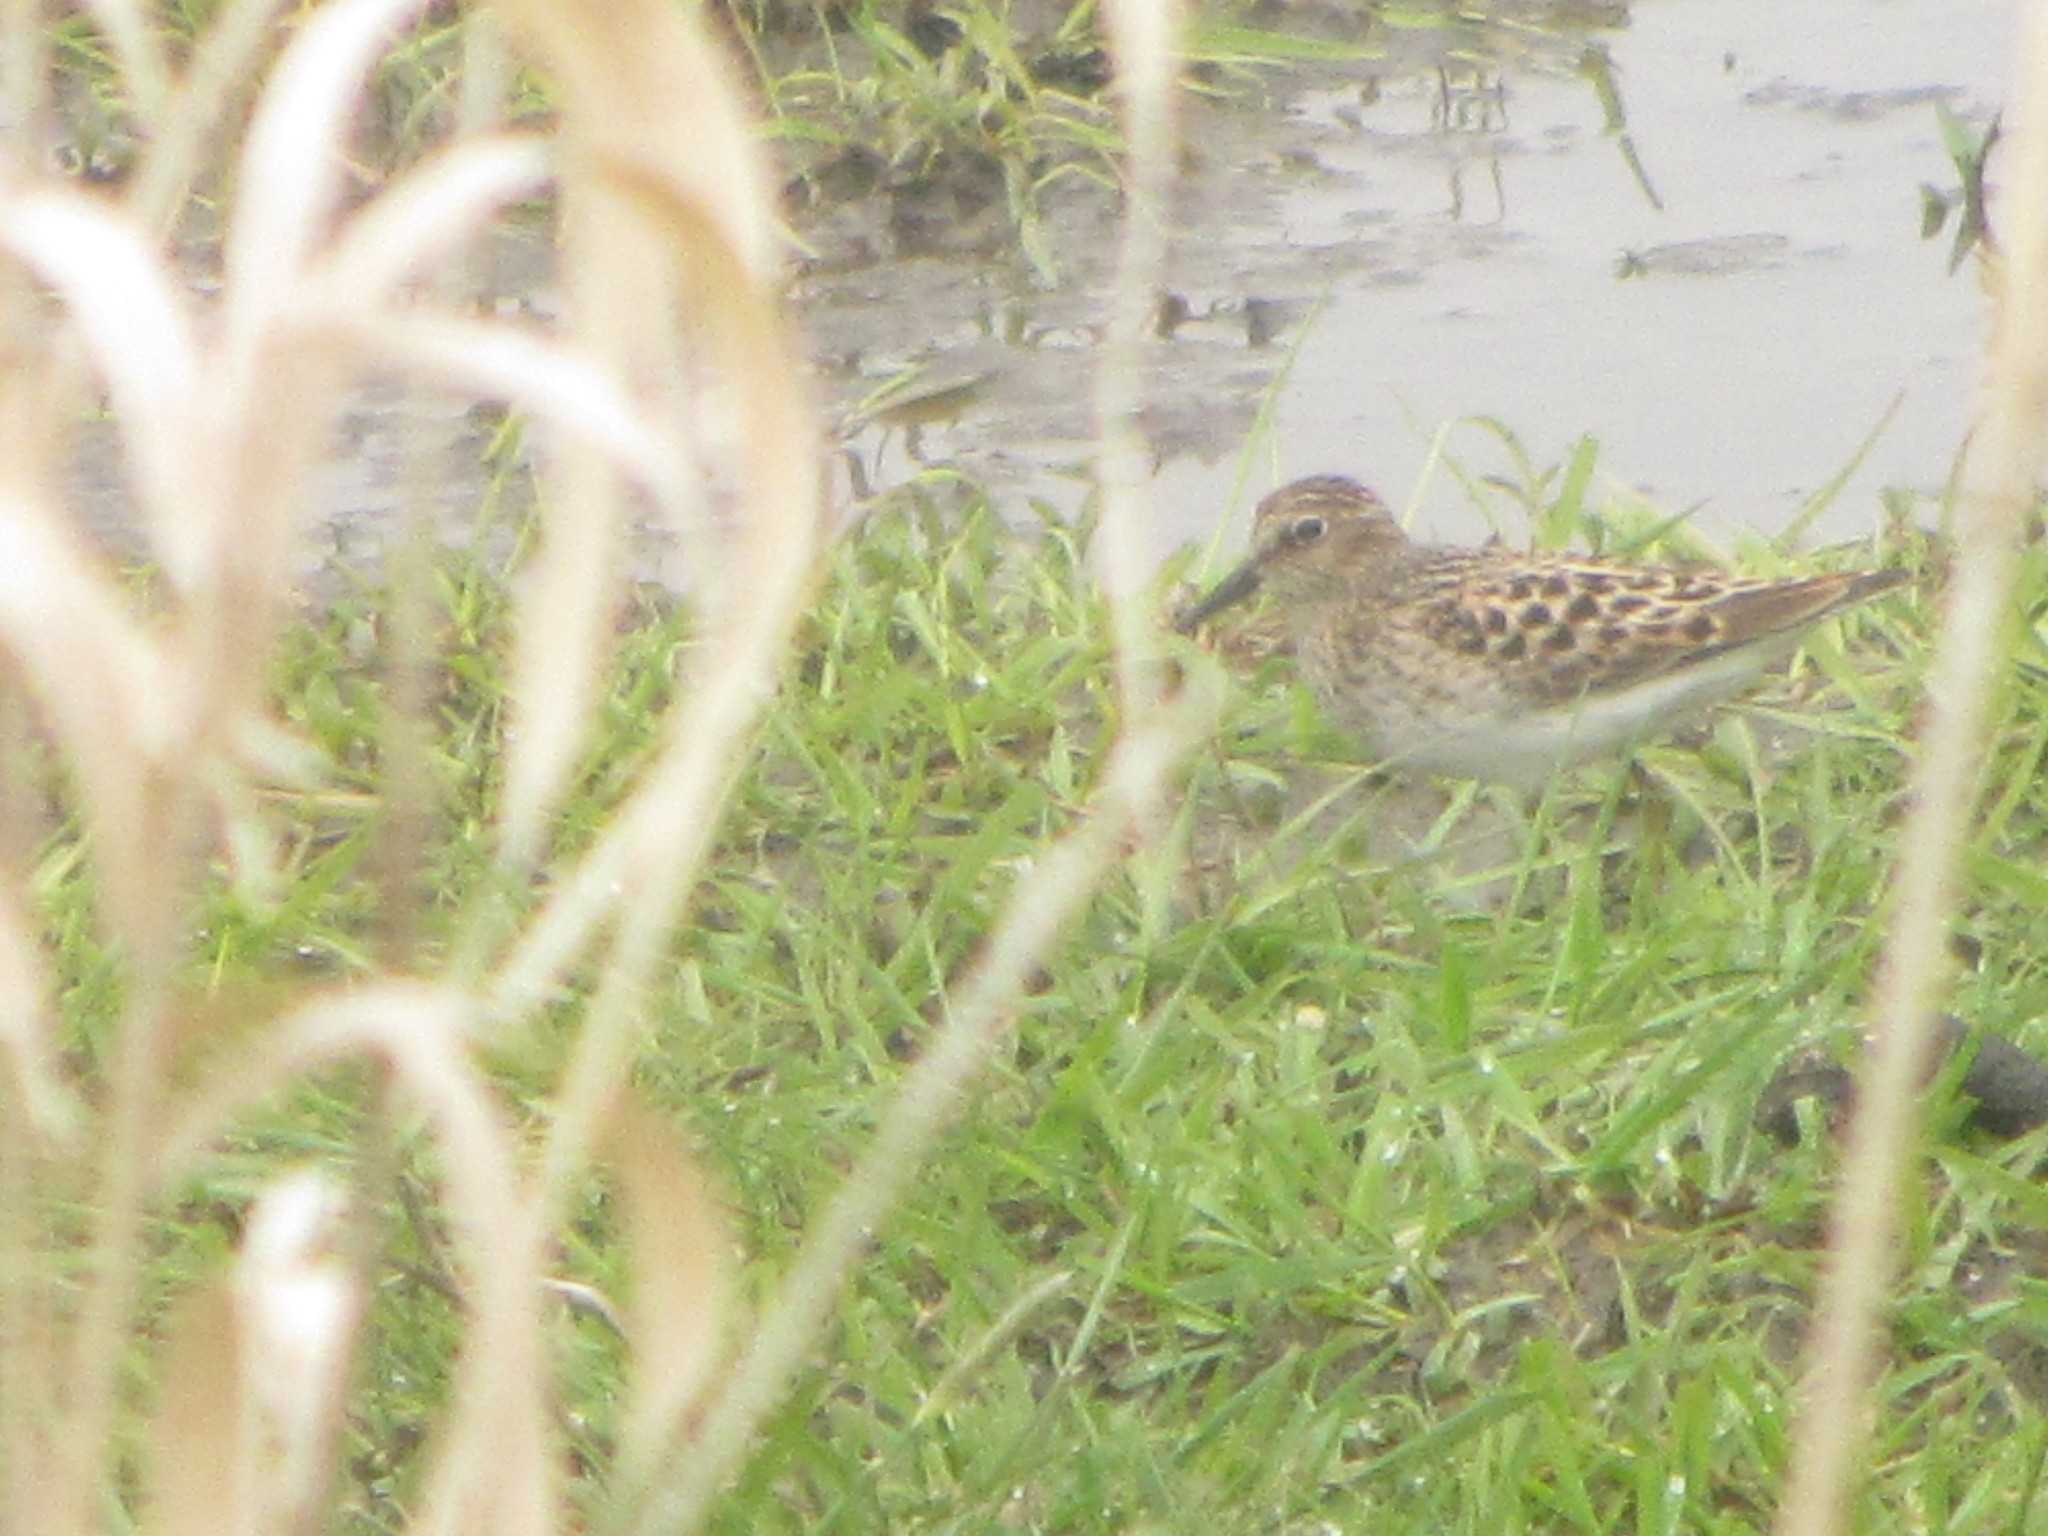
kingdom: Animalia
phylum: Chordata
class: Aves
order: Charadriiformes
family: Scolopacidae
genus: Calidris
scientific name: Calidris minutilla
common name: Least sandpiper
